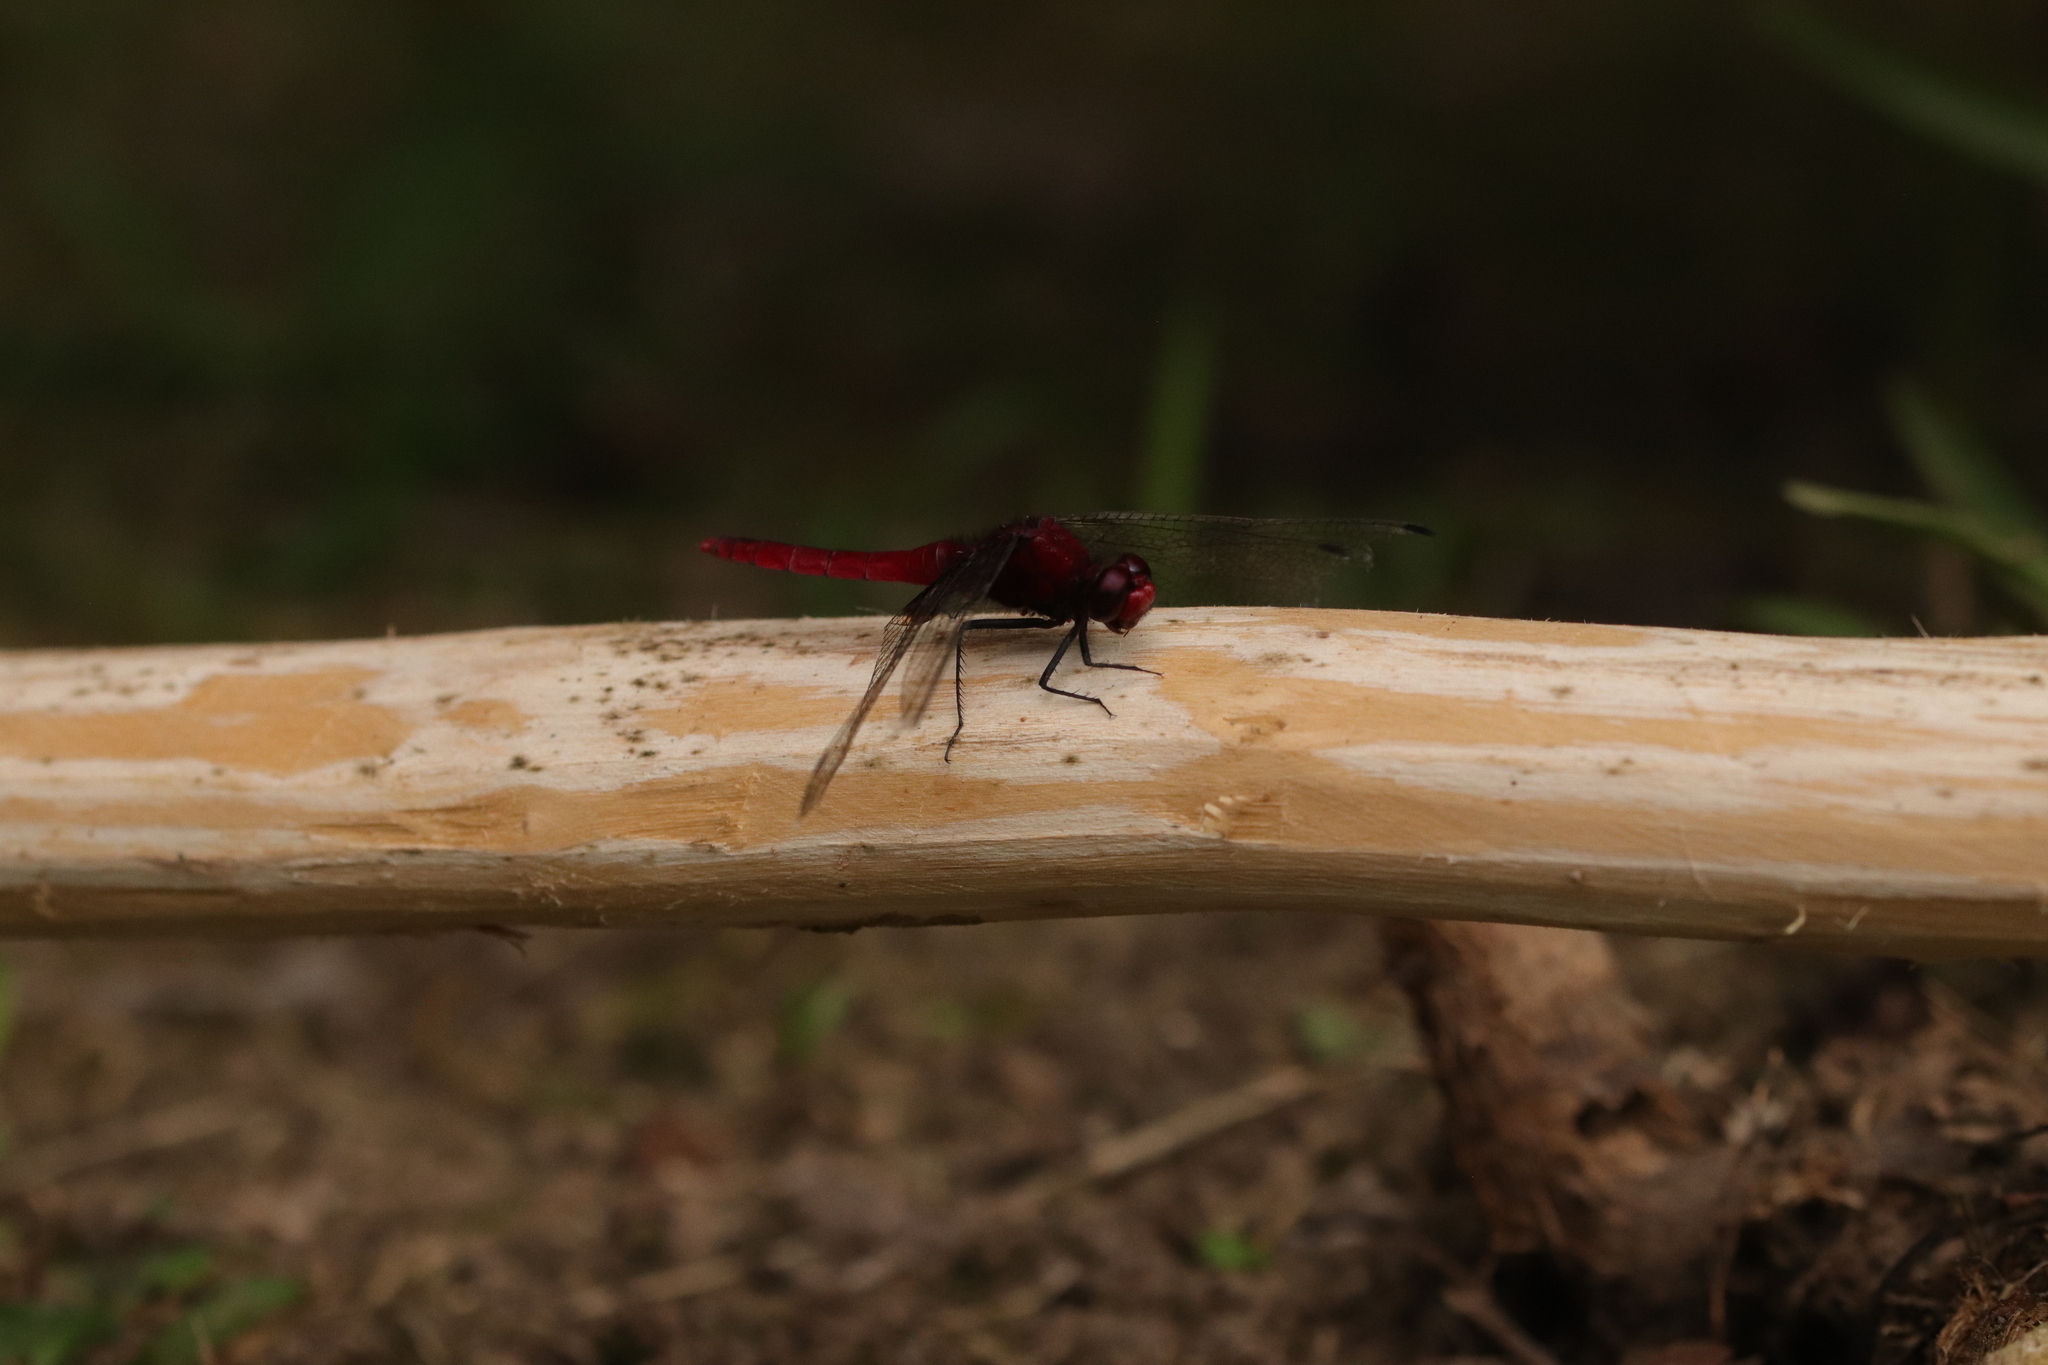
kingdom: Animalia
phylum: Arthropoda
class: Insecta
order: Odonata
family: Libellulidae
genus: Erythemis
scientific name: Erythemis mithroides
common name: Claret pondhawk
